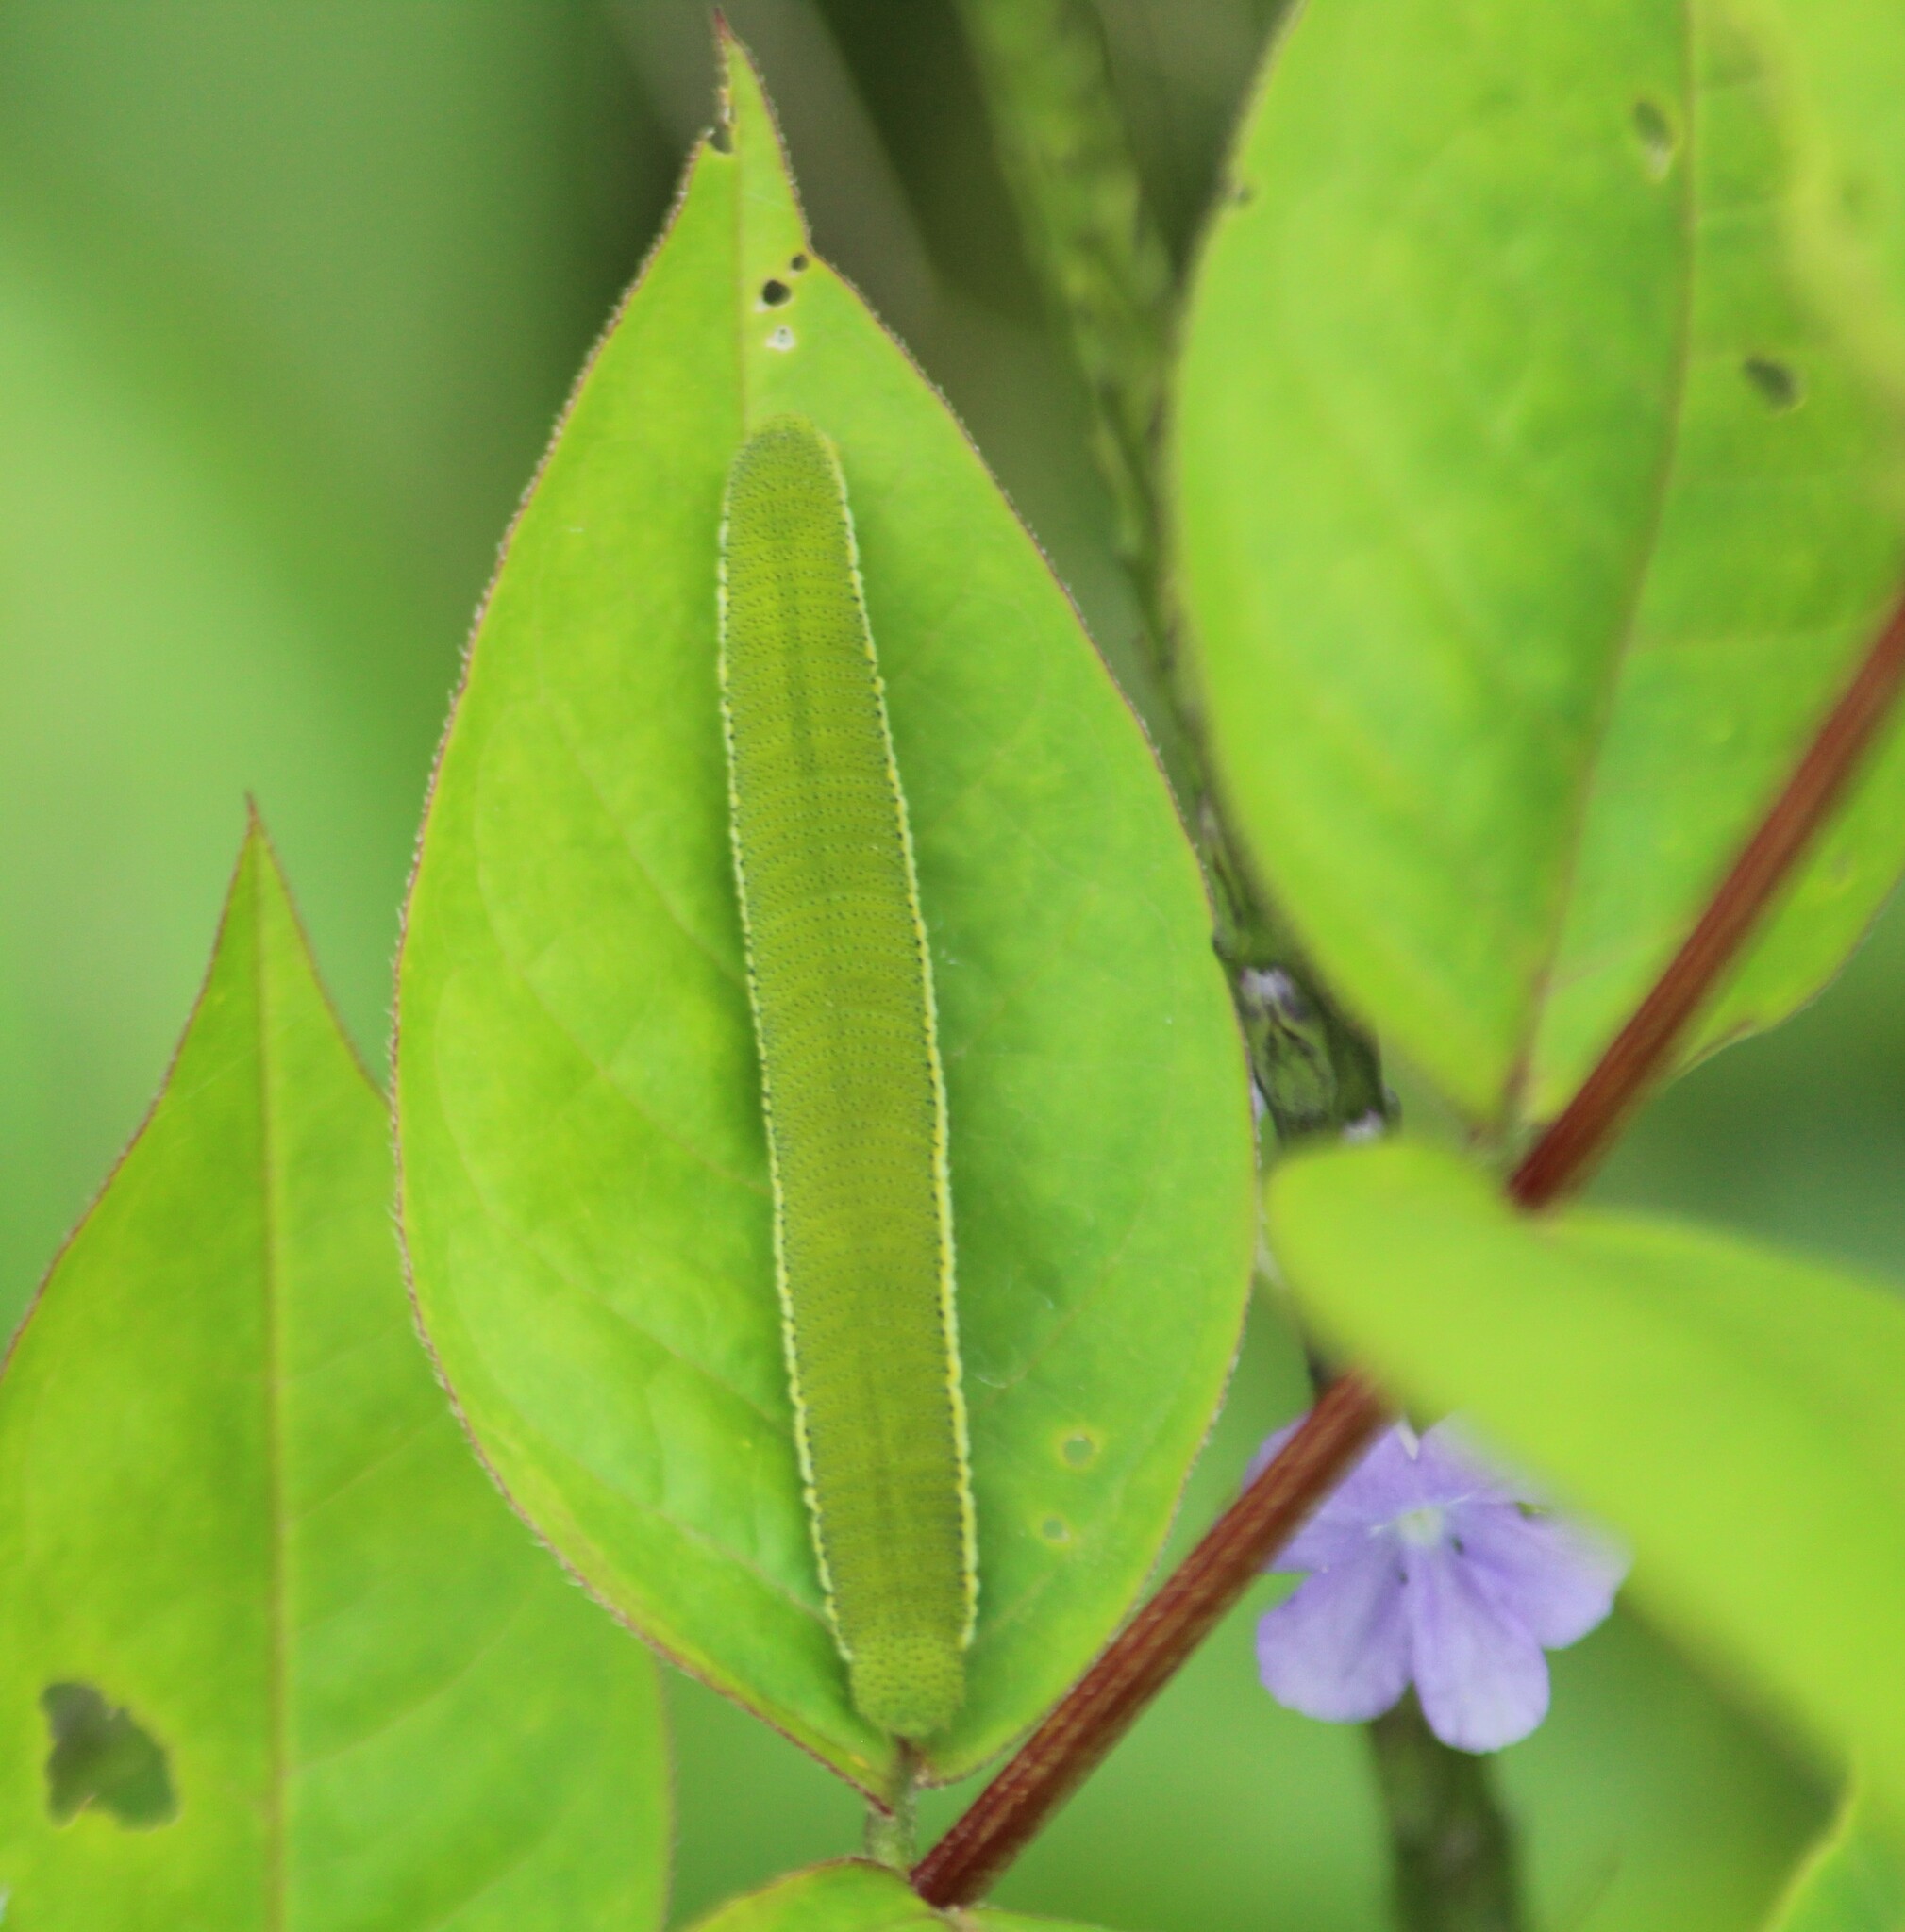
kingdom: Animalia
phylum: Arthropoda
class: Insecta
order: Lepidoptera
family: Pieridae
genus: Catopsilia
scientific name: Catopsilia pyranthe
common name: Mottled emigrant
